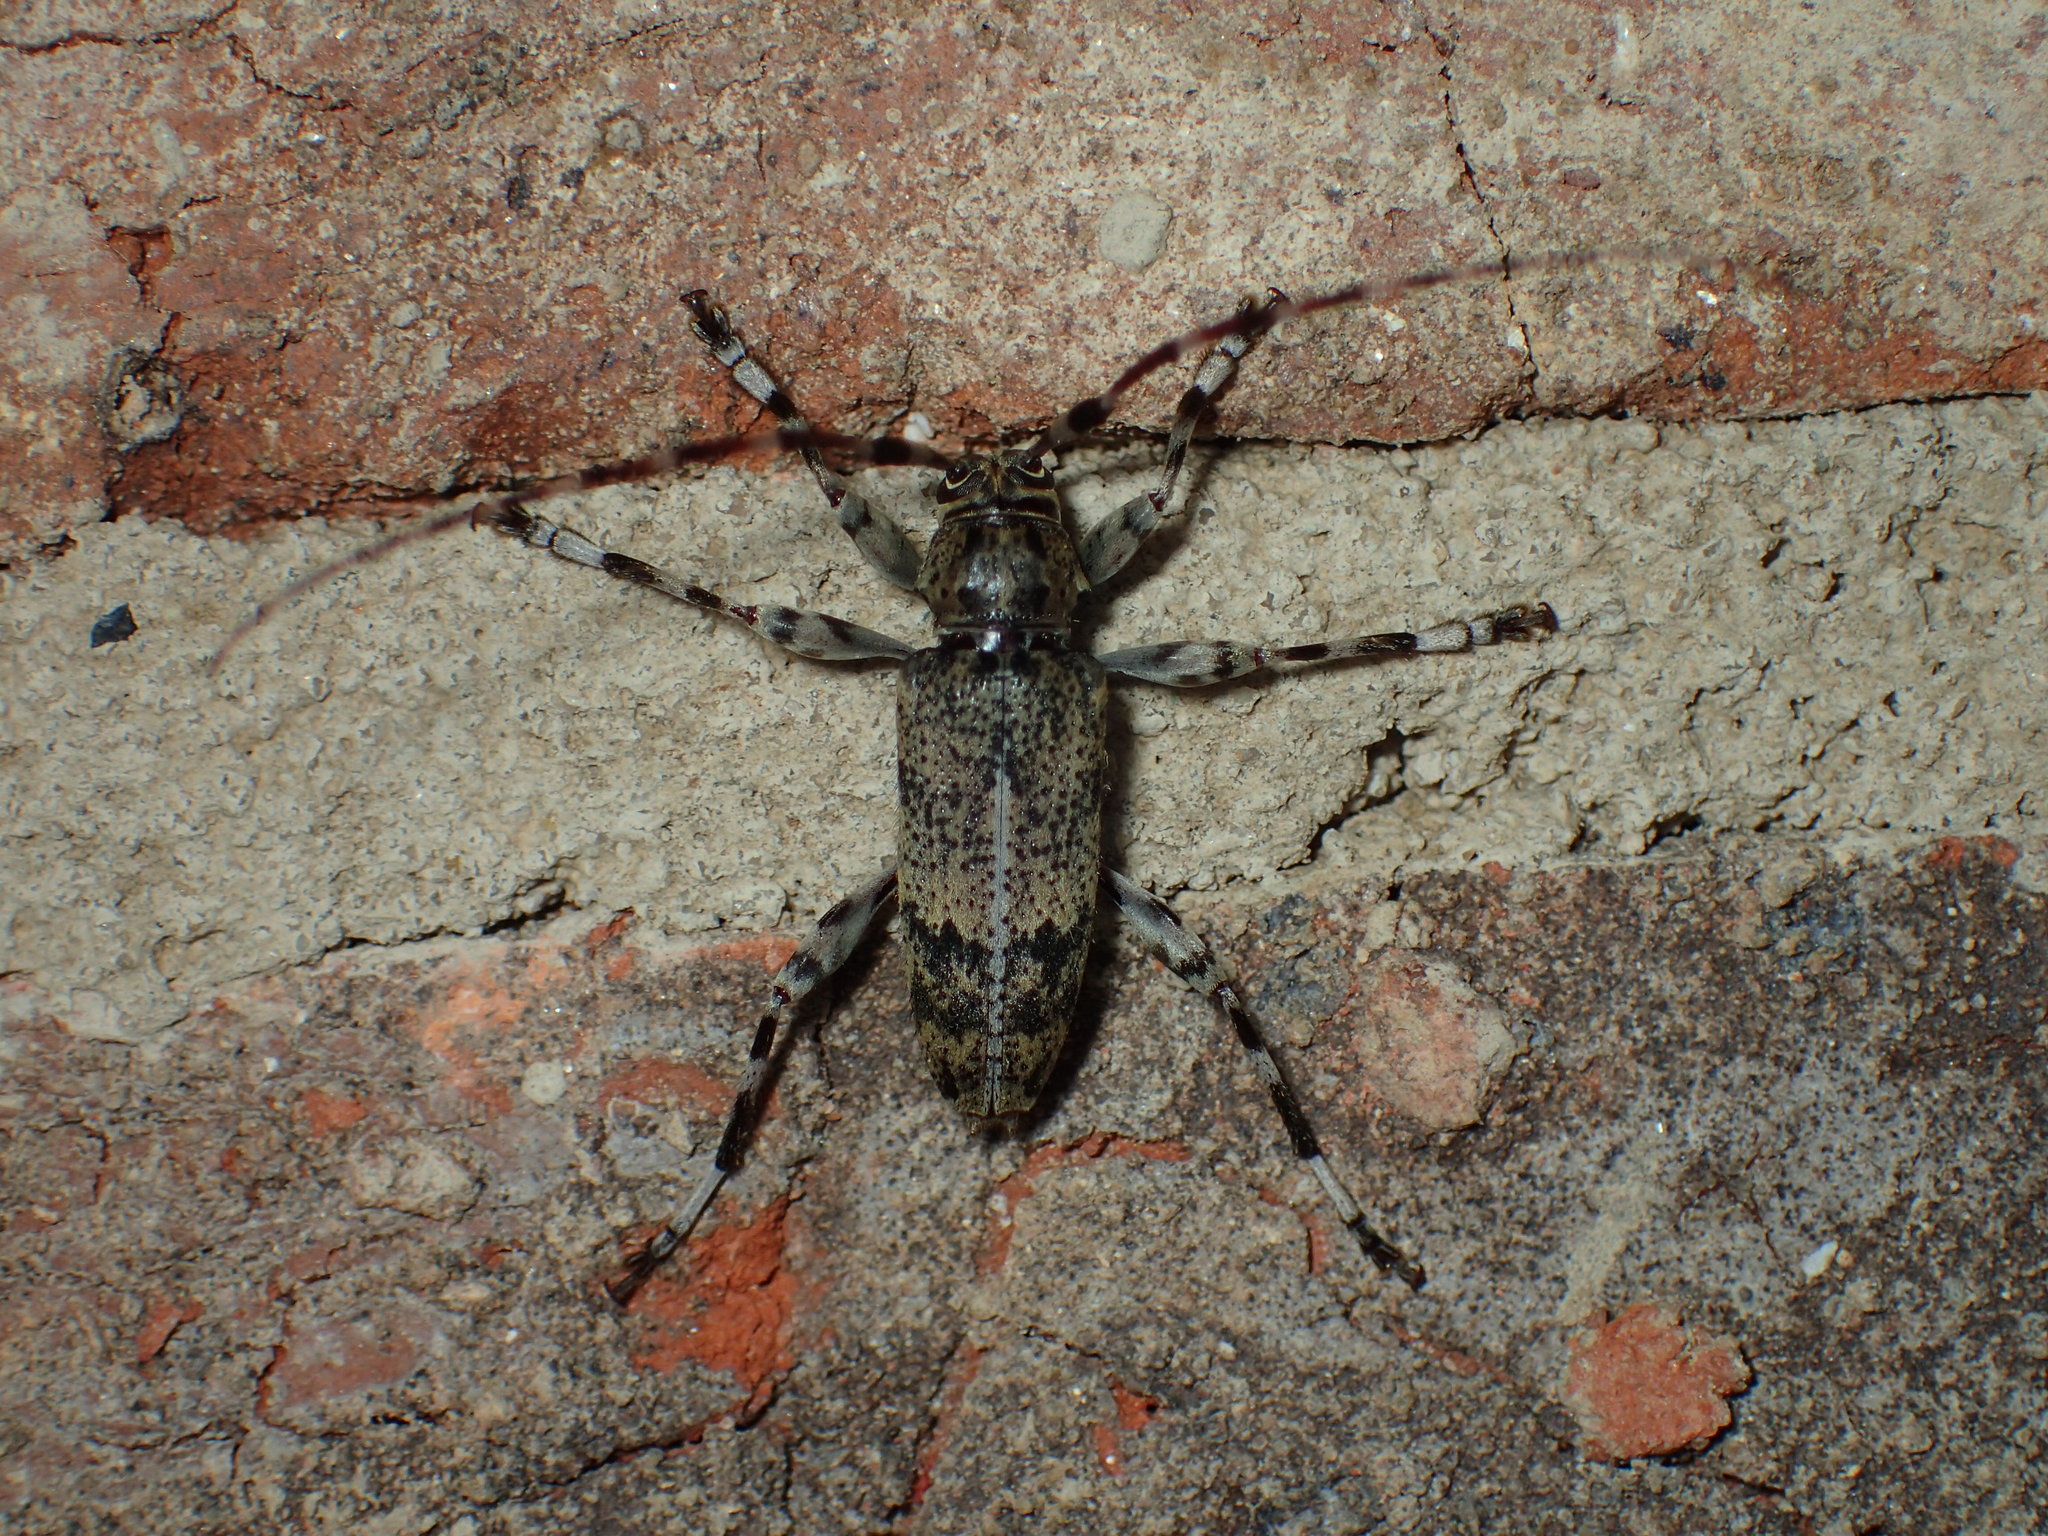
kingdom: Animalia
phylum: Arthropoda
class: Insecta
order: Coleoptera
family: Cerambycidae
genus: Graphisurus
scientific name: Graphisurus fasciatus
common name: Banded graphisurus
